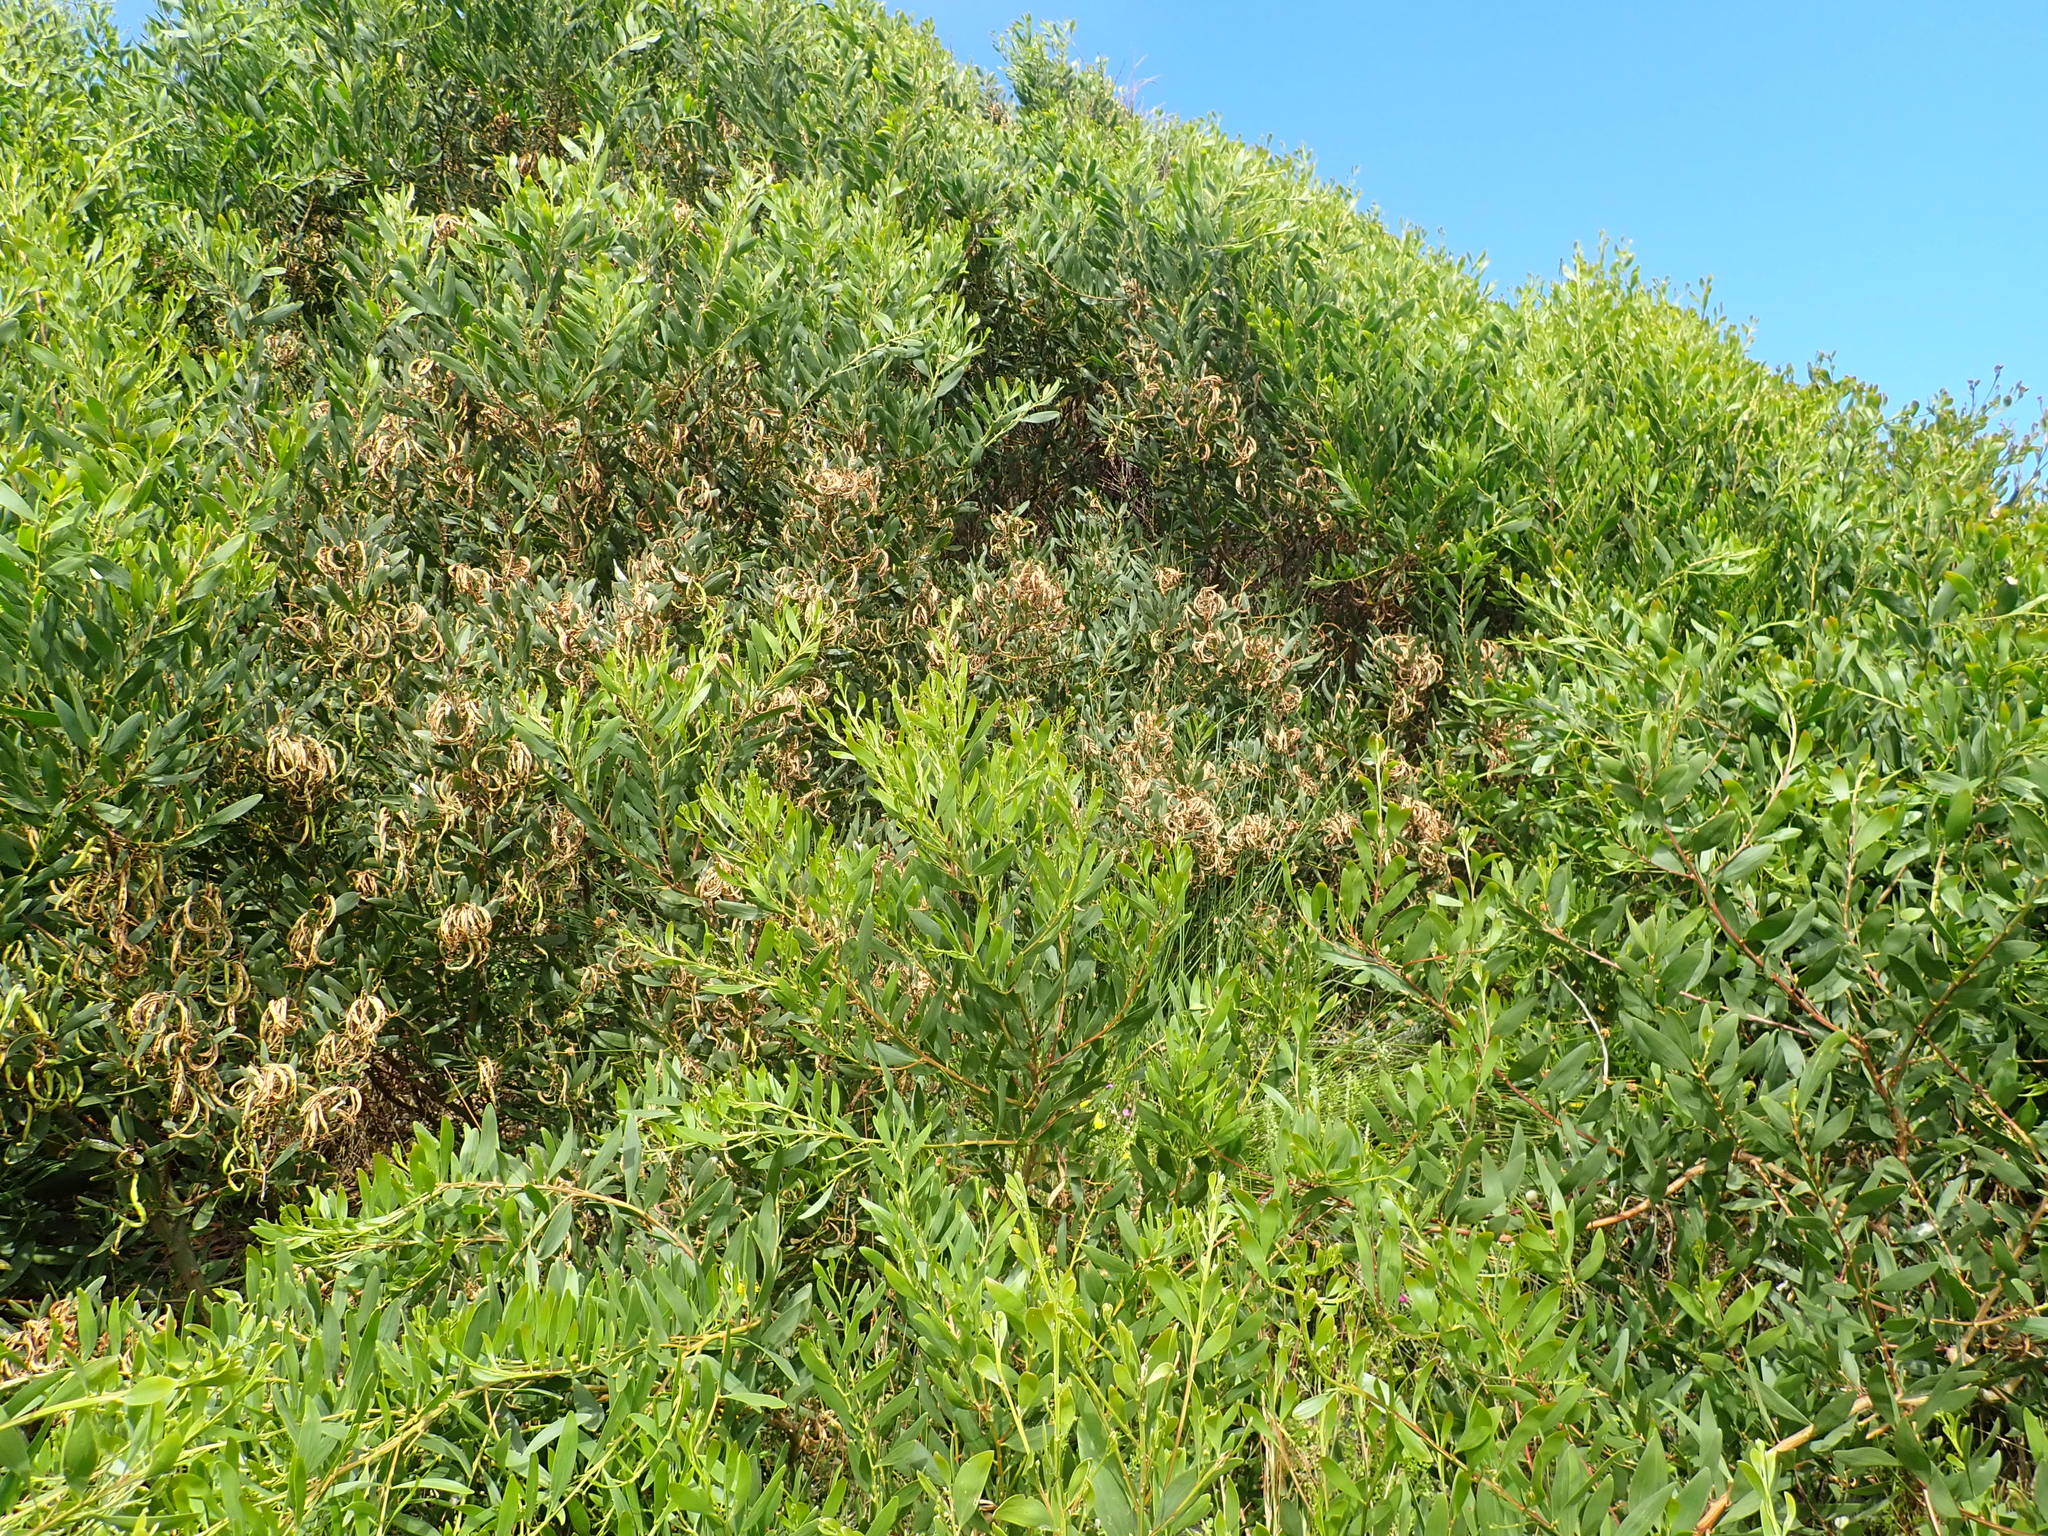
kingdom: Plantae
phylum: Tracheophyta
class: Magnoliopsida
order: Fabales
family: Fabaceae
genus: Acacia
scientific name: Acacia longifolia
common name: Sydney golden wattle
